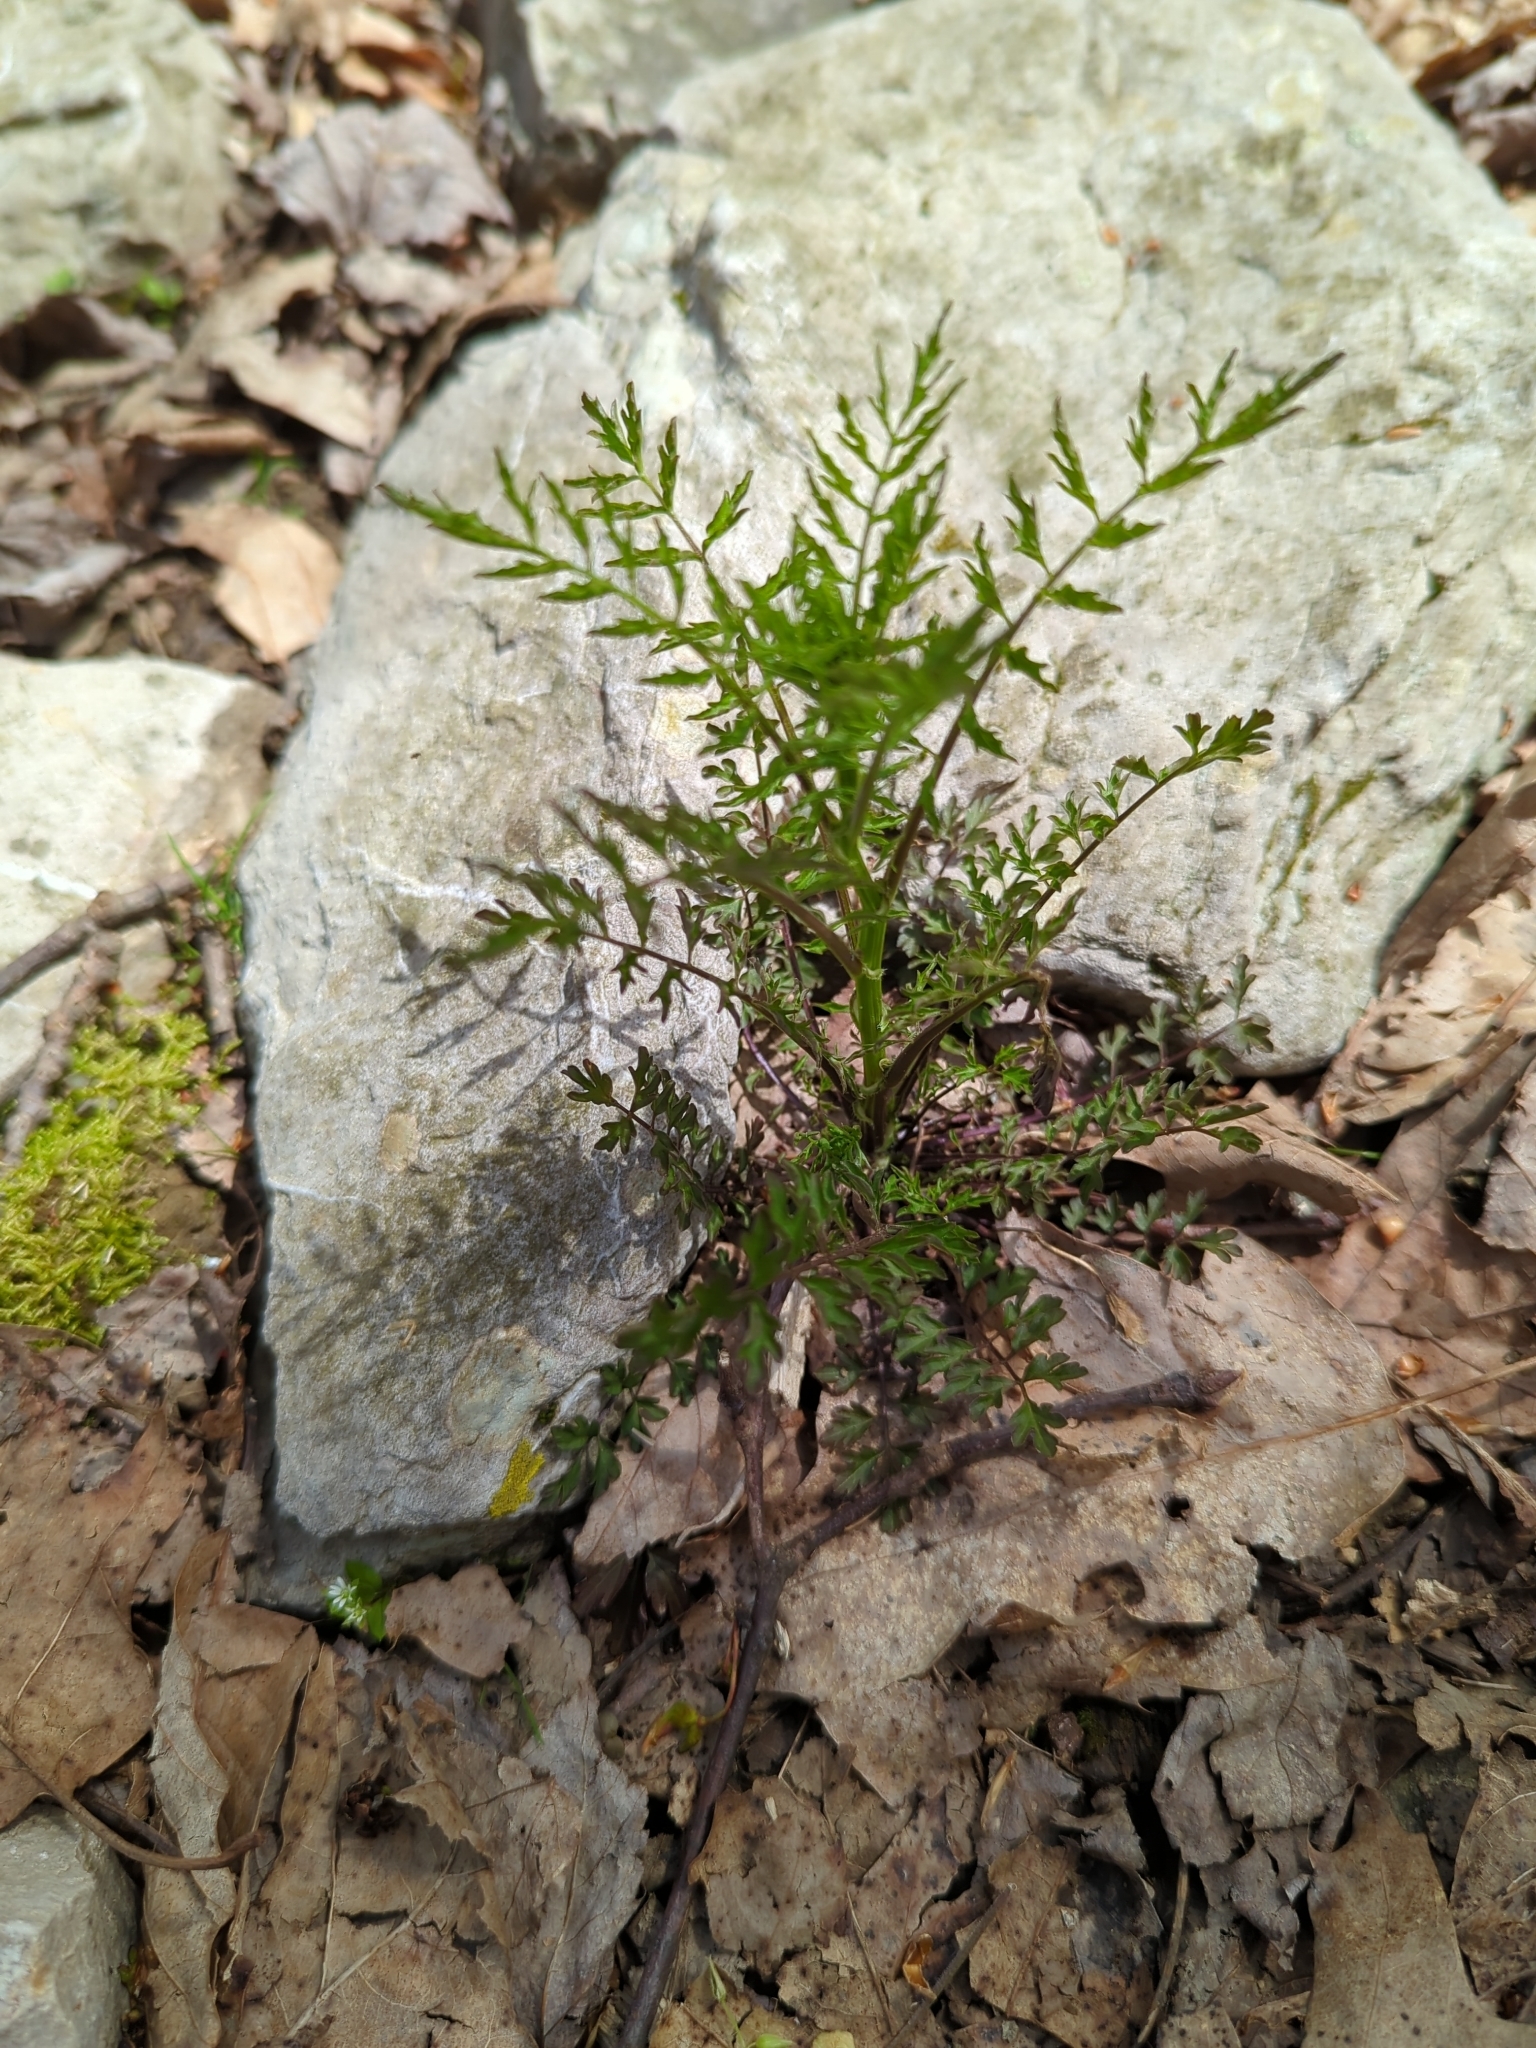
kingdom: Plantae
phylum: Tracheophyta
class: Magnoliopsida
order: Brassicales
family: Brassicaceae
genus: Cardamine
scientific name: Cardamine impatiens
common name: Narrow-leaved bitter-cress
